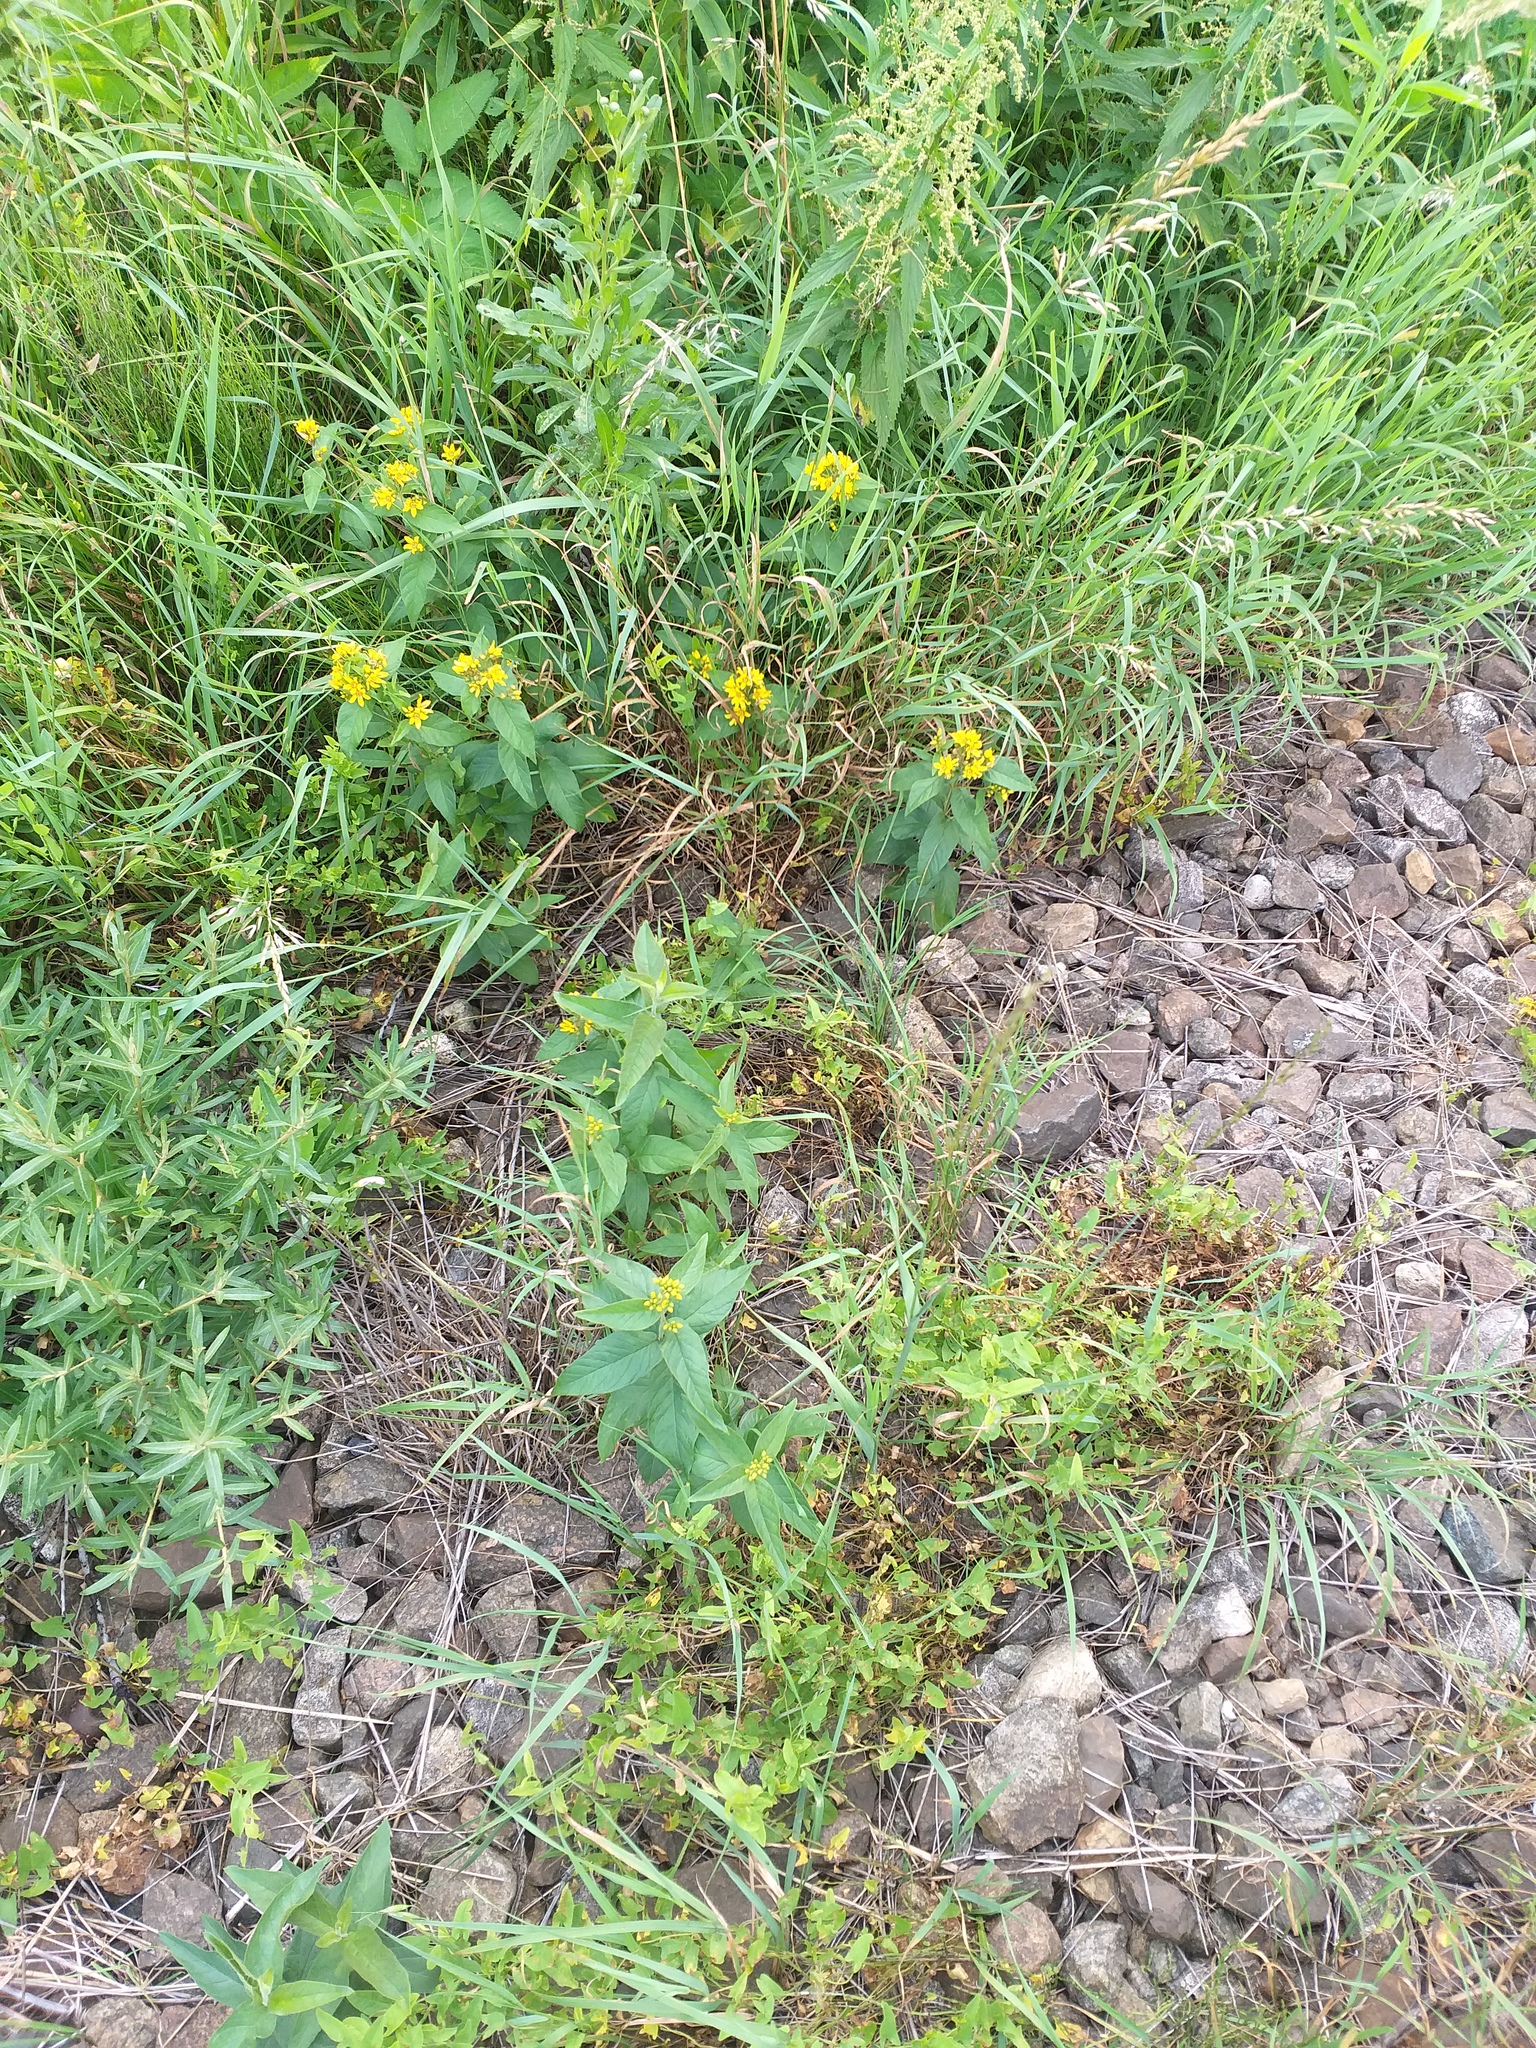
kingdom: Plantae
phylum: Tracheophyta
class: Magnoliopsida
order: Ericales
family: Primulaceae
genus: Lysimachia
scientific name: Lysimachia vulgaris
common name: Yellow loosestrife
